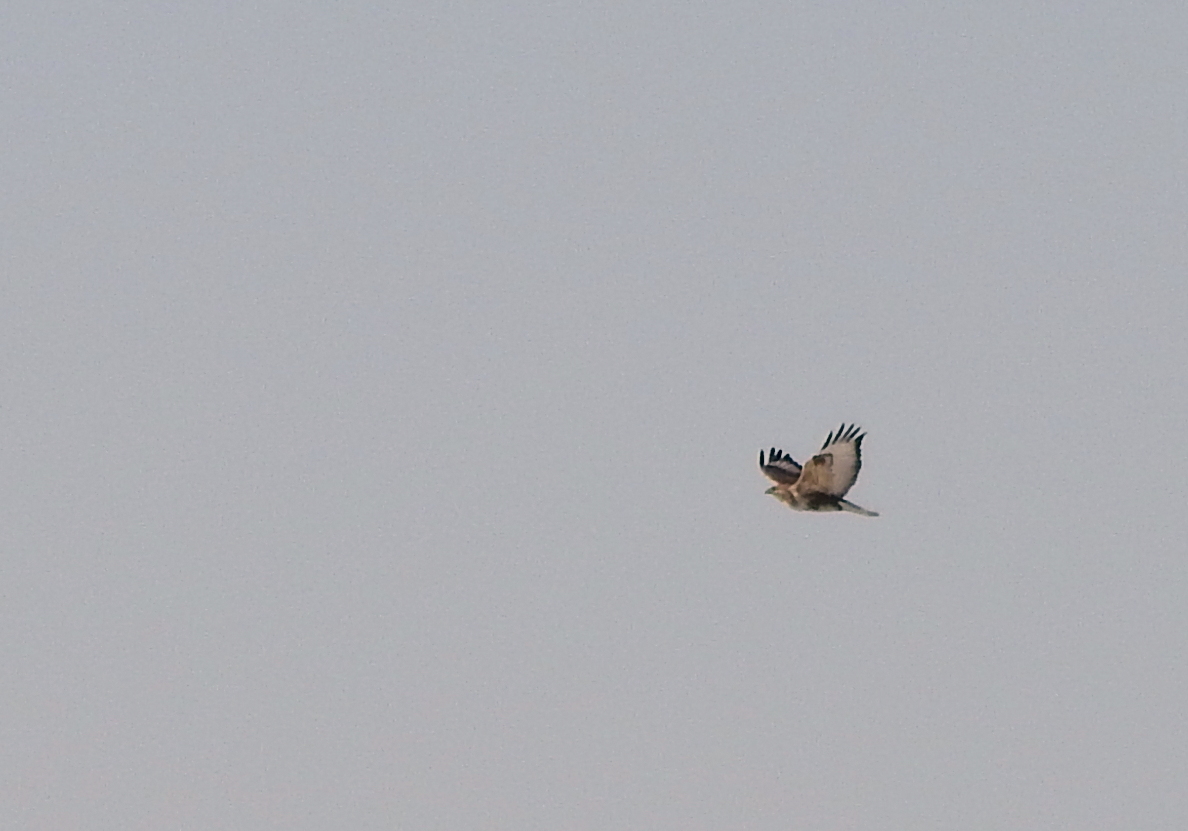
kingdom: Animalia
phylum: Chordata
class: Aves
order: Accipitriformes
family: Accipitridae
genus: Buteo
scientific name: Buteo hemilasius
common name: Upland buzzard
